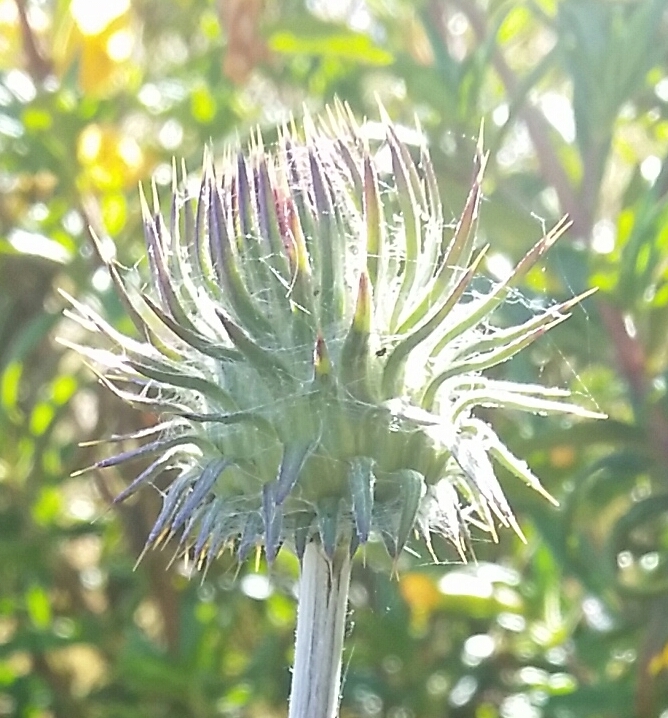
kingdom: Plantae
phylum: Tracheophyta
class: Magnoliopsida
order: Asterales
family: Asteraceae
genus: Cirsium
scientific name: Cirsium occidentale
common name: Western thistle
